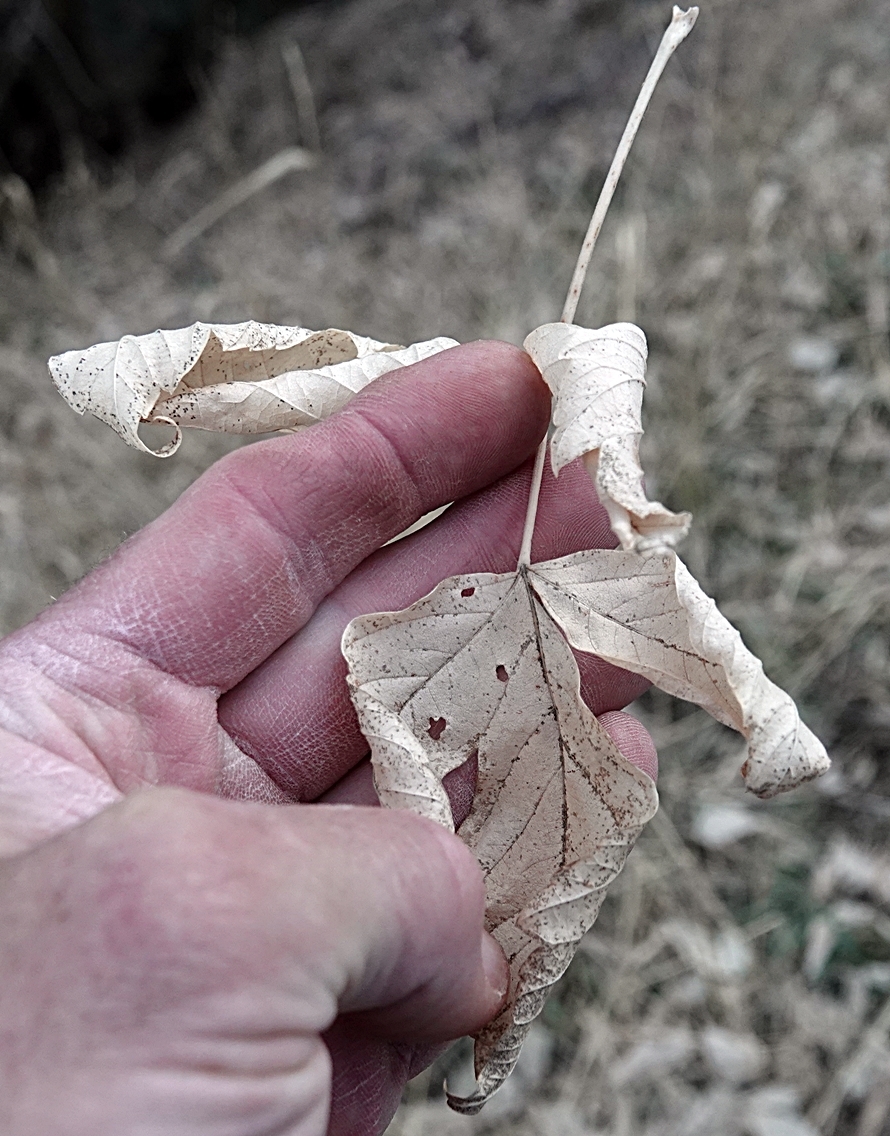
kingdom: Plantae
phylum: Tracheophyta
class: Magnoliopsida
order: Sapindales
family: Sapindaceae
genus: Acer
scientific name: Acer negundo
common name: Ashleaf maple
